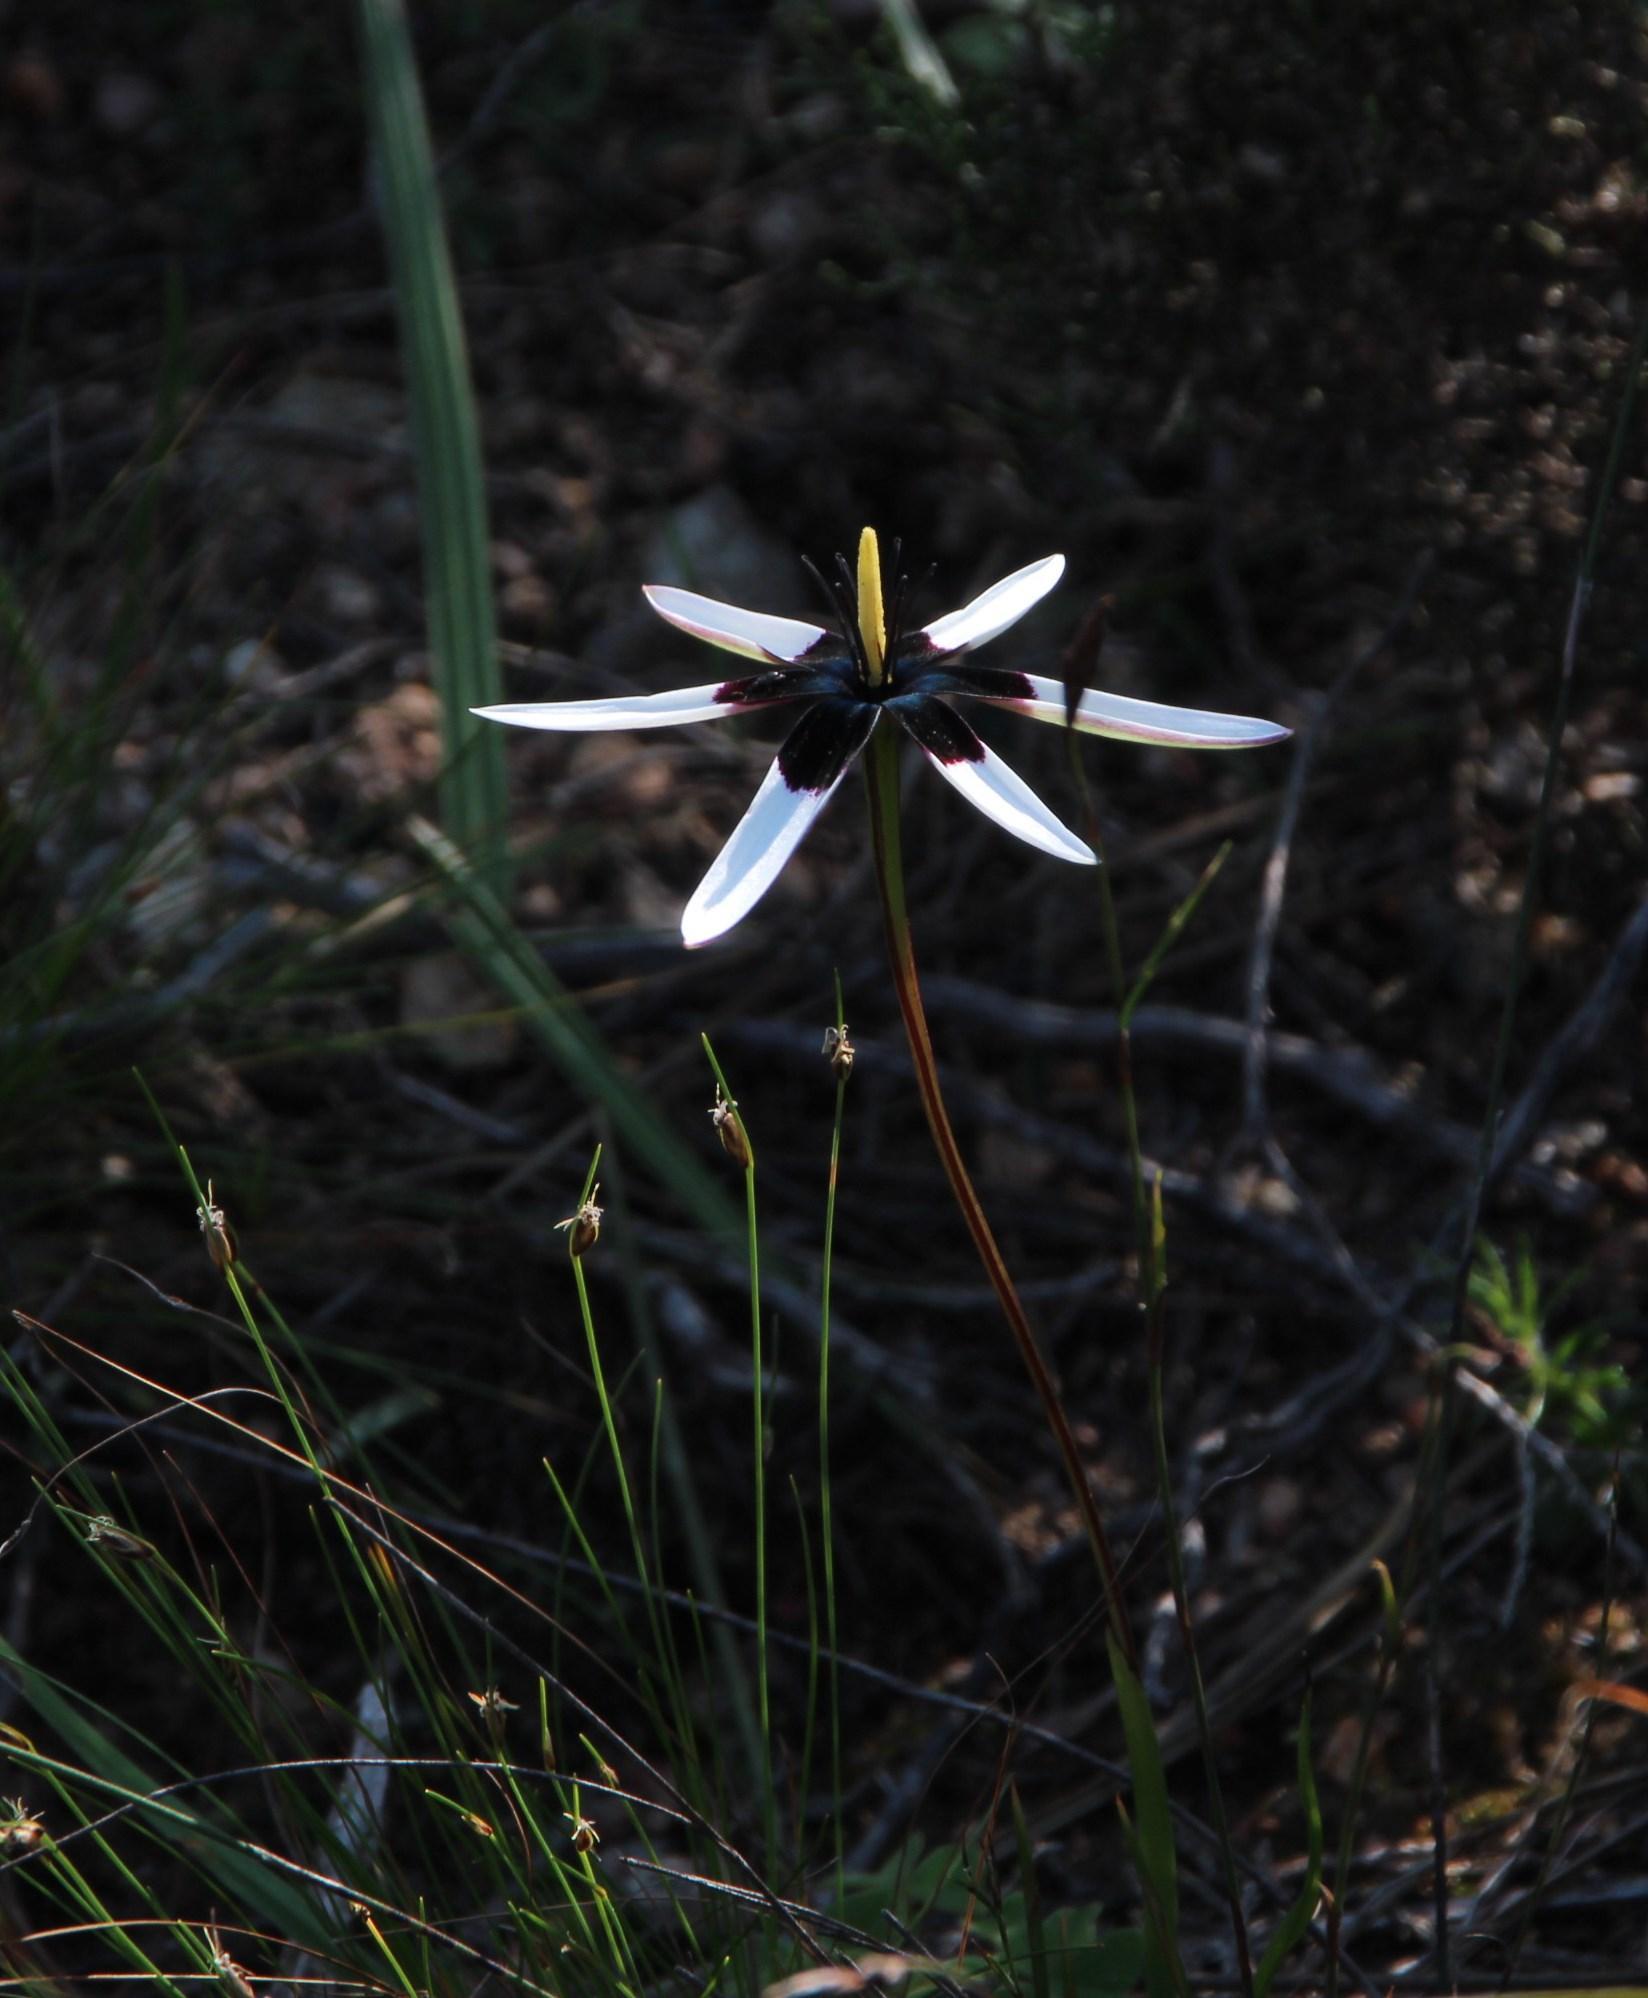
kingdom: Plantae
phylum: Tracheophyta
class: Liliopsida
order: Asparagales
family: Hypoxidaceae
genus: Pauridia
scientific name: Pauridia capensis
